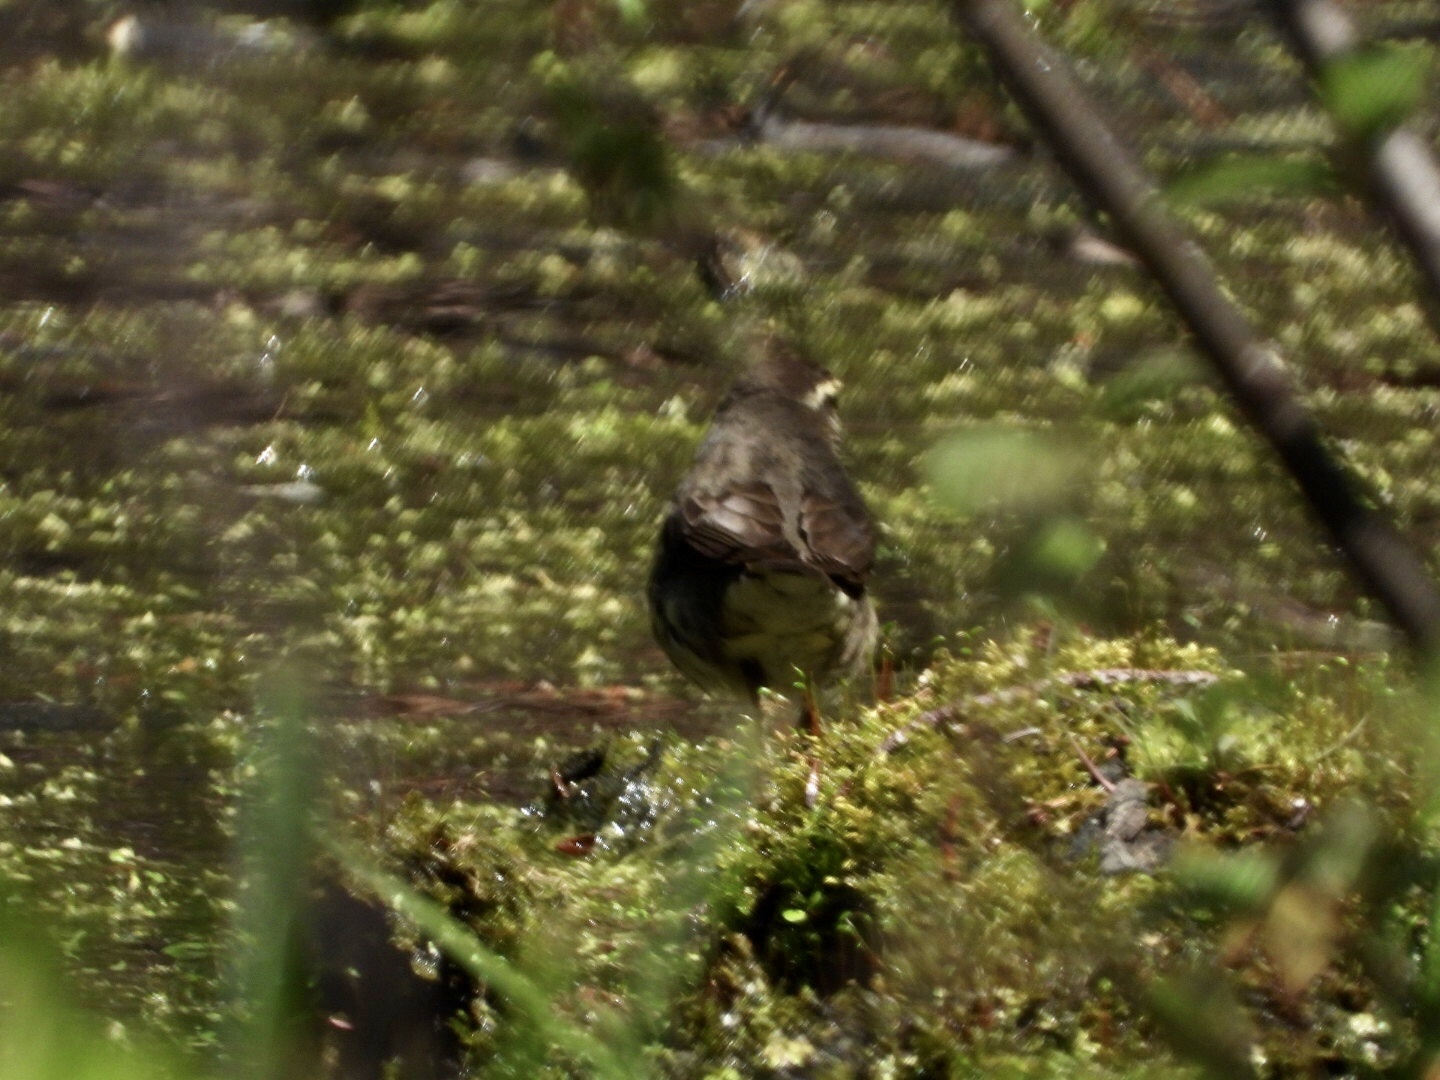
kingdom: Animalia
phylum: Chordata
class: Aves
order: Passeriformes
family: Parulidae
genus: Parkesia
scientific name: Parkesia noveboracensis
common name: Northern waterthrush
